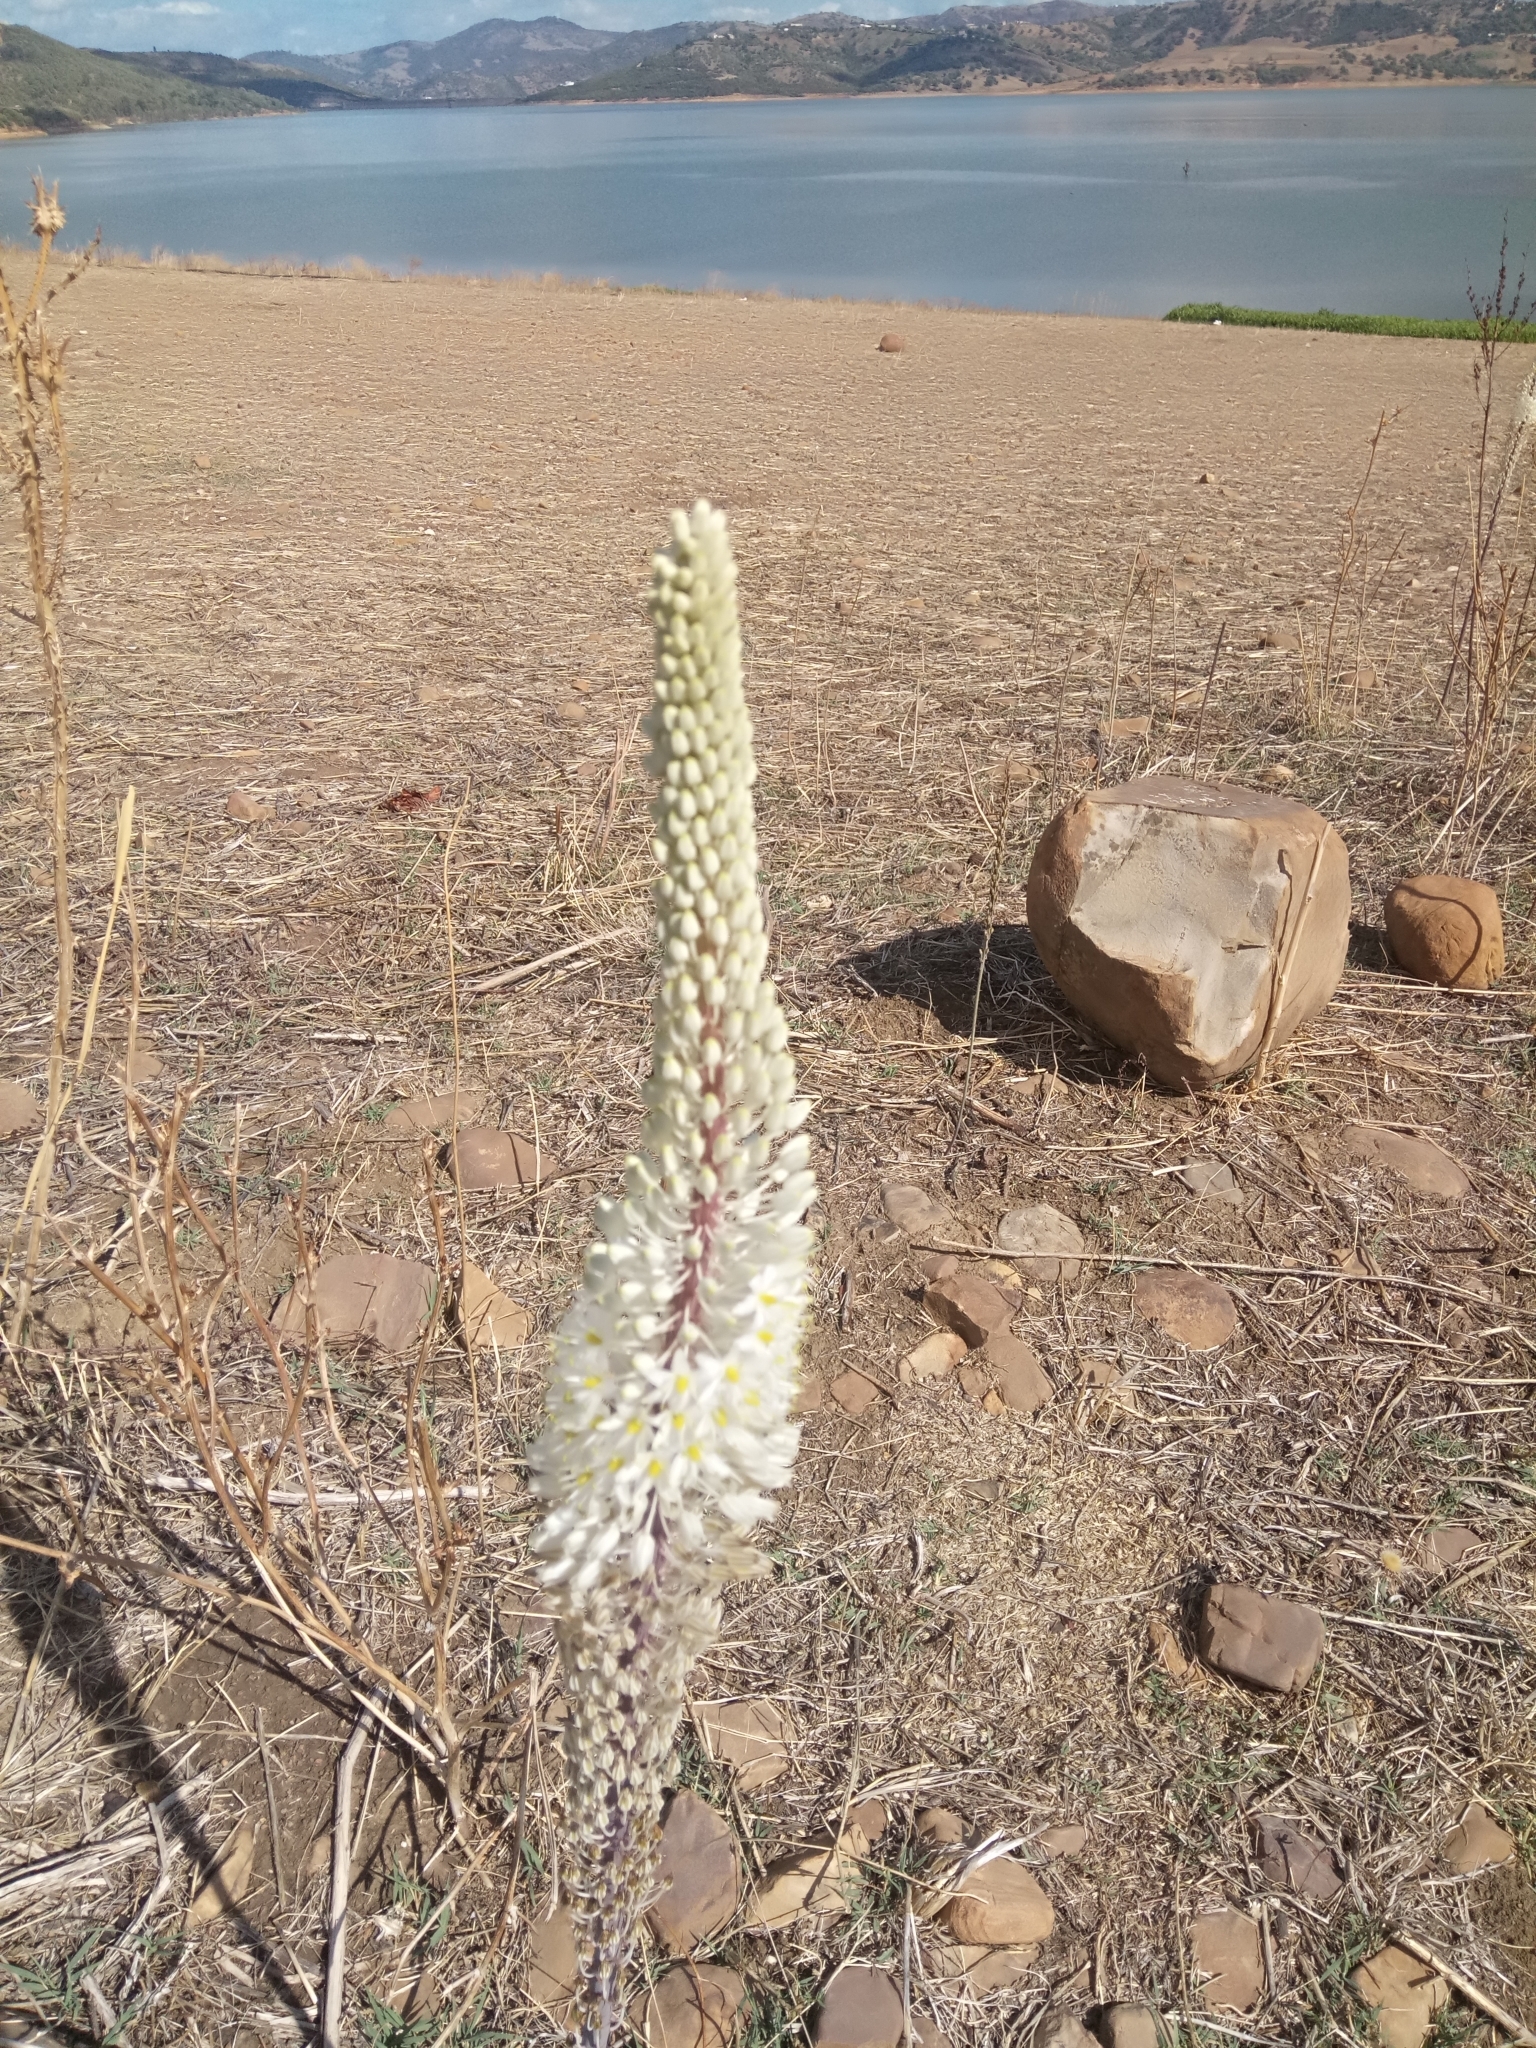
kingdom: Plantae
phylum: Tracheophyta
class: Liliopsida
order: Asparagales
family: Asparagaceae
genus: Drimia
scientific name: Drimia numidica
